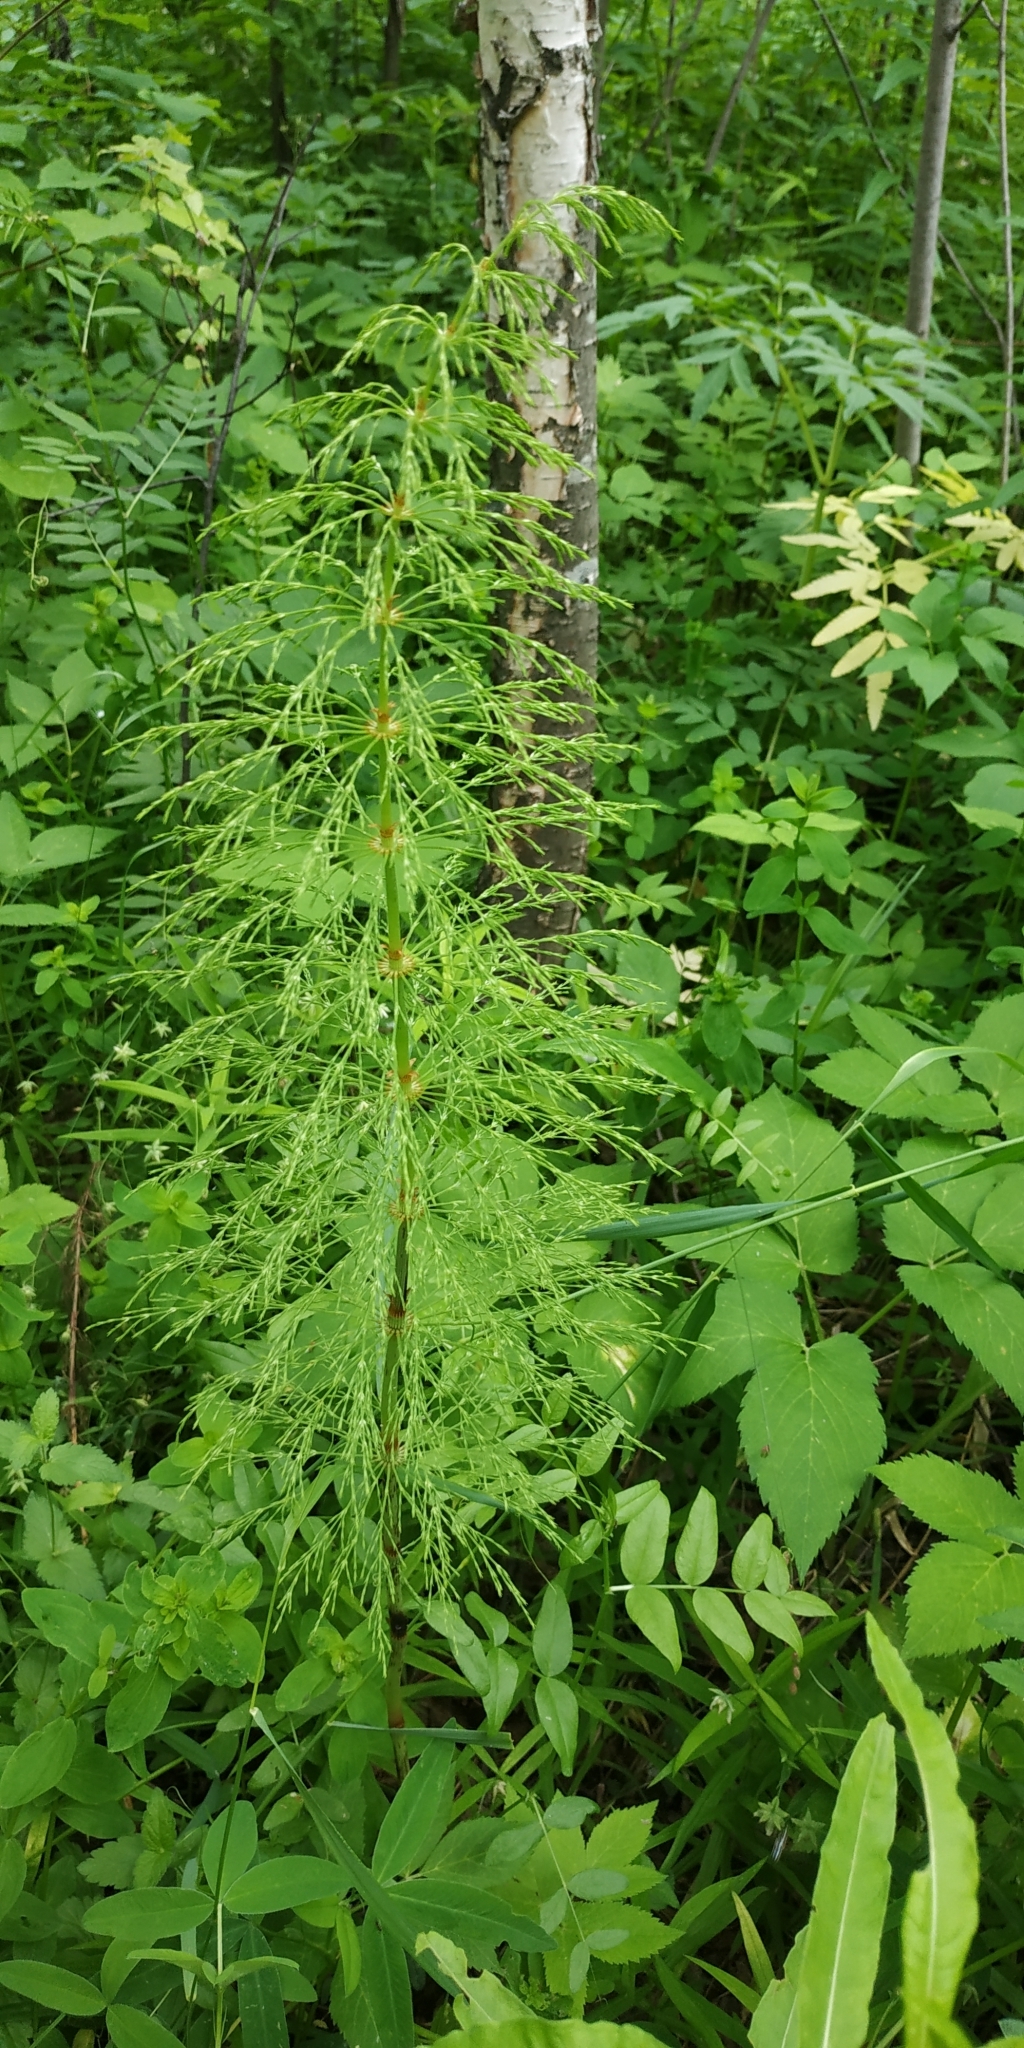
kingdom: Plantae
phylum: Tracheophyta
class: Polypodiopsida
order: Equisetales
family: Equisetaceae
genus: Equisetum
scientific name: Equisetum sylvaticum
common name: Wood horsetail
